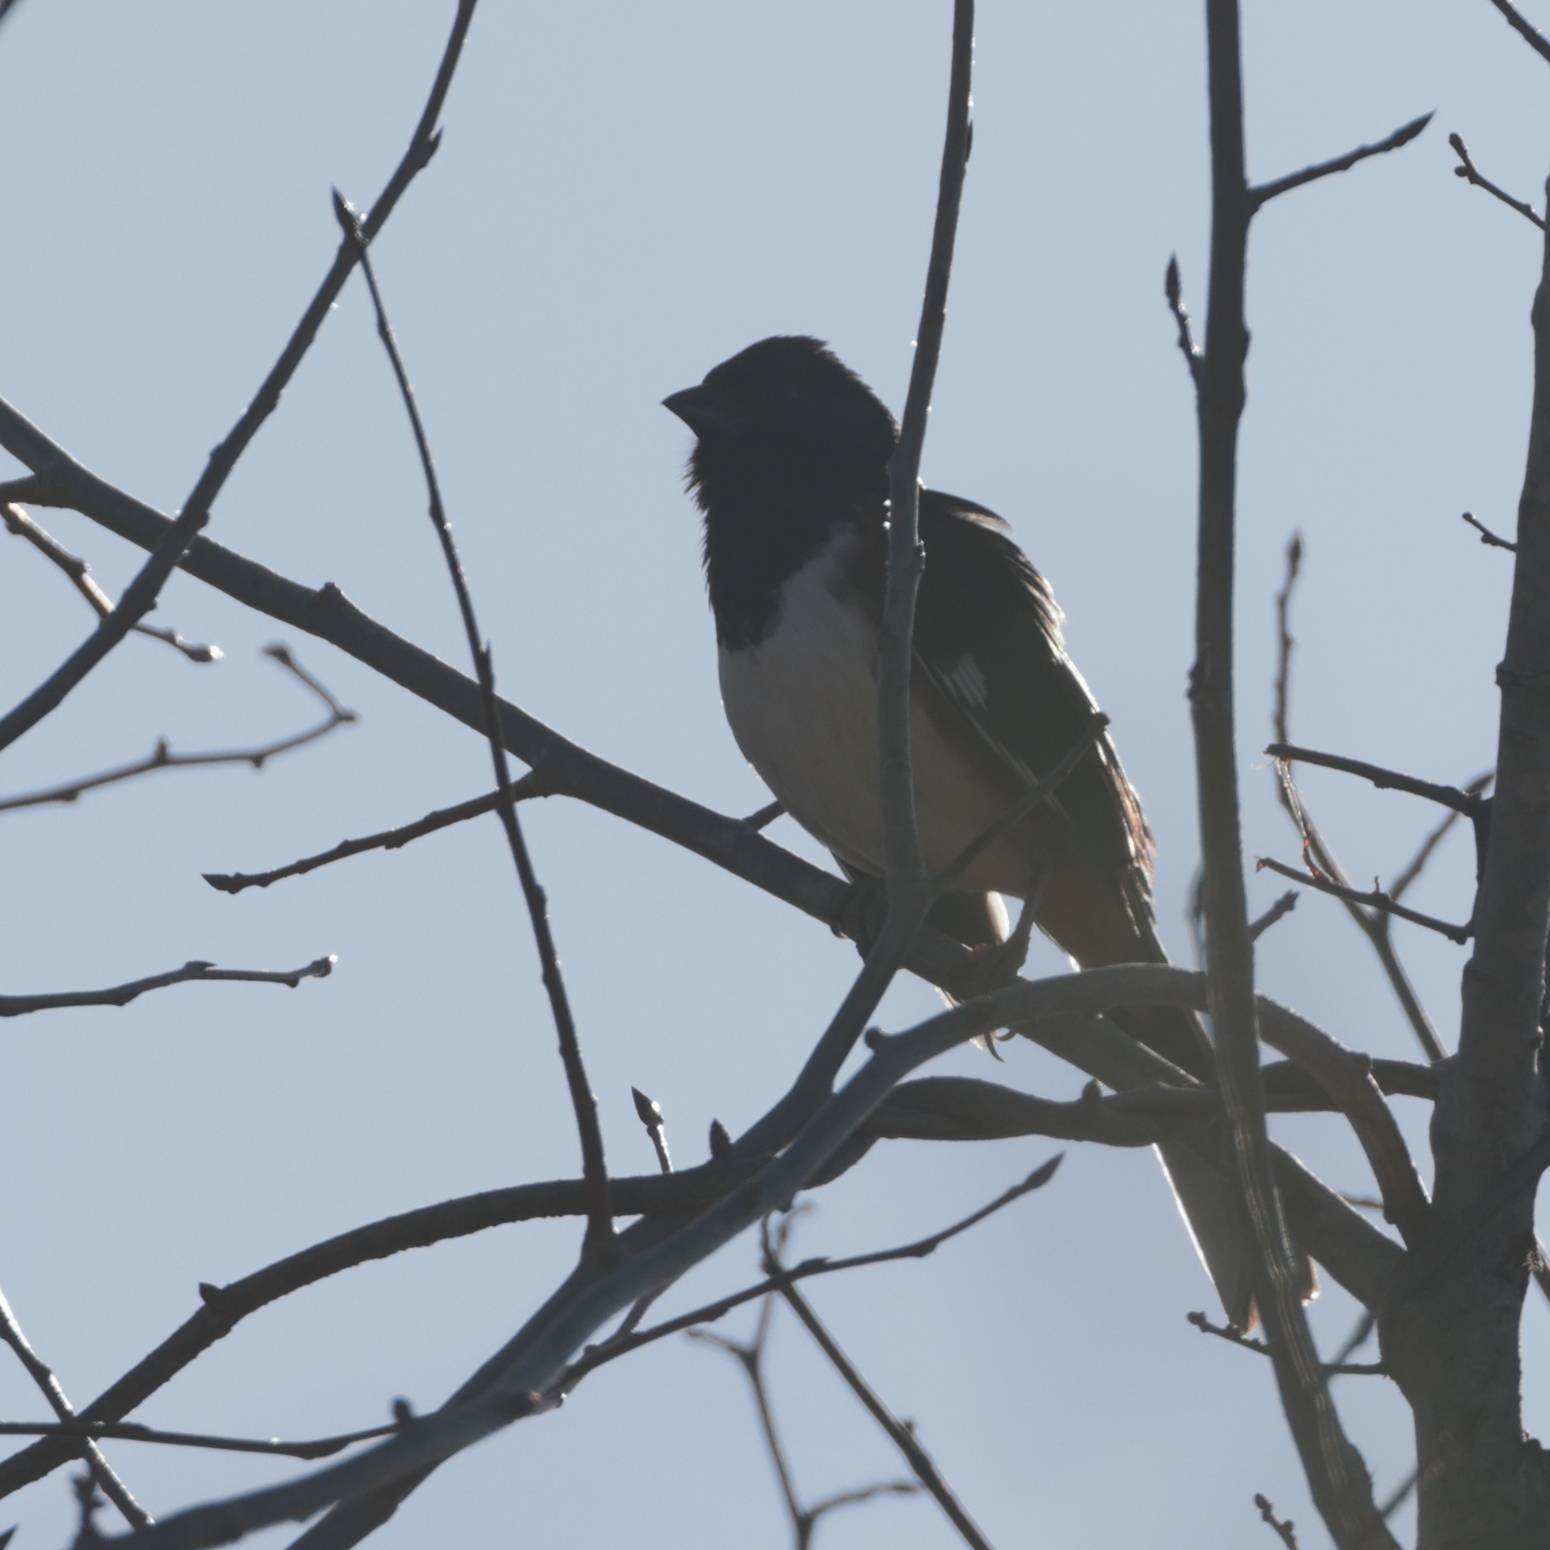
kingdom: Animalia
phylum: Chordata
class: Aves
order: Passeriformes
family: Passerellidae
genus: Pipilo
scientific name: Pipilo erythrophthalmus
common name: Eastern towhee
